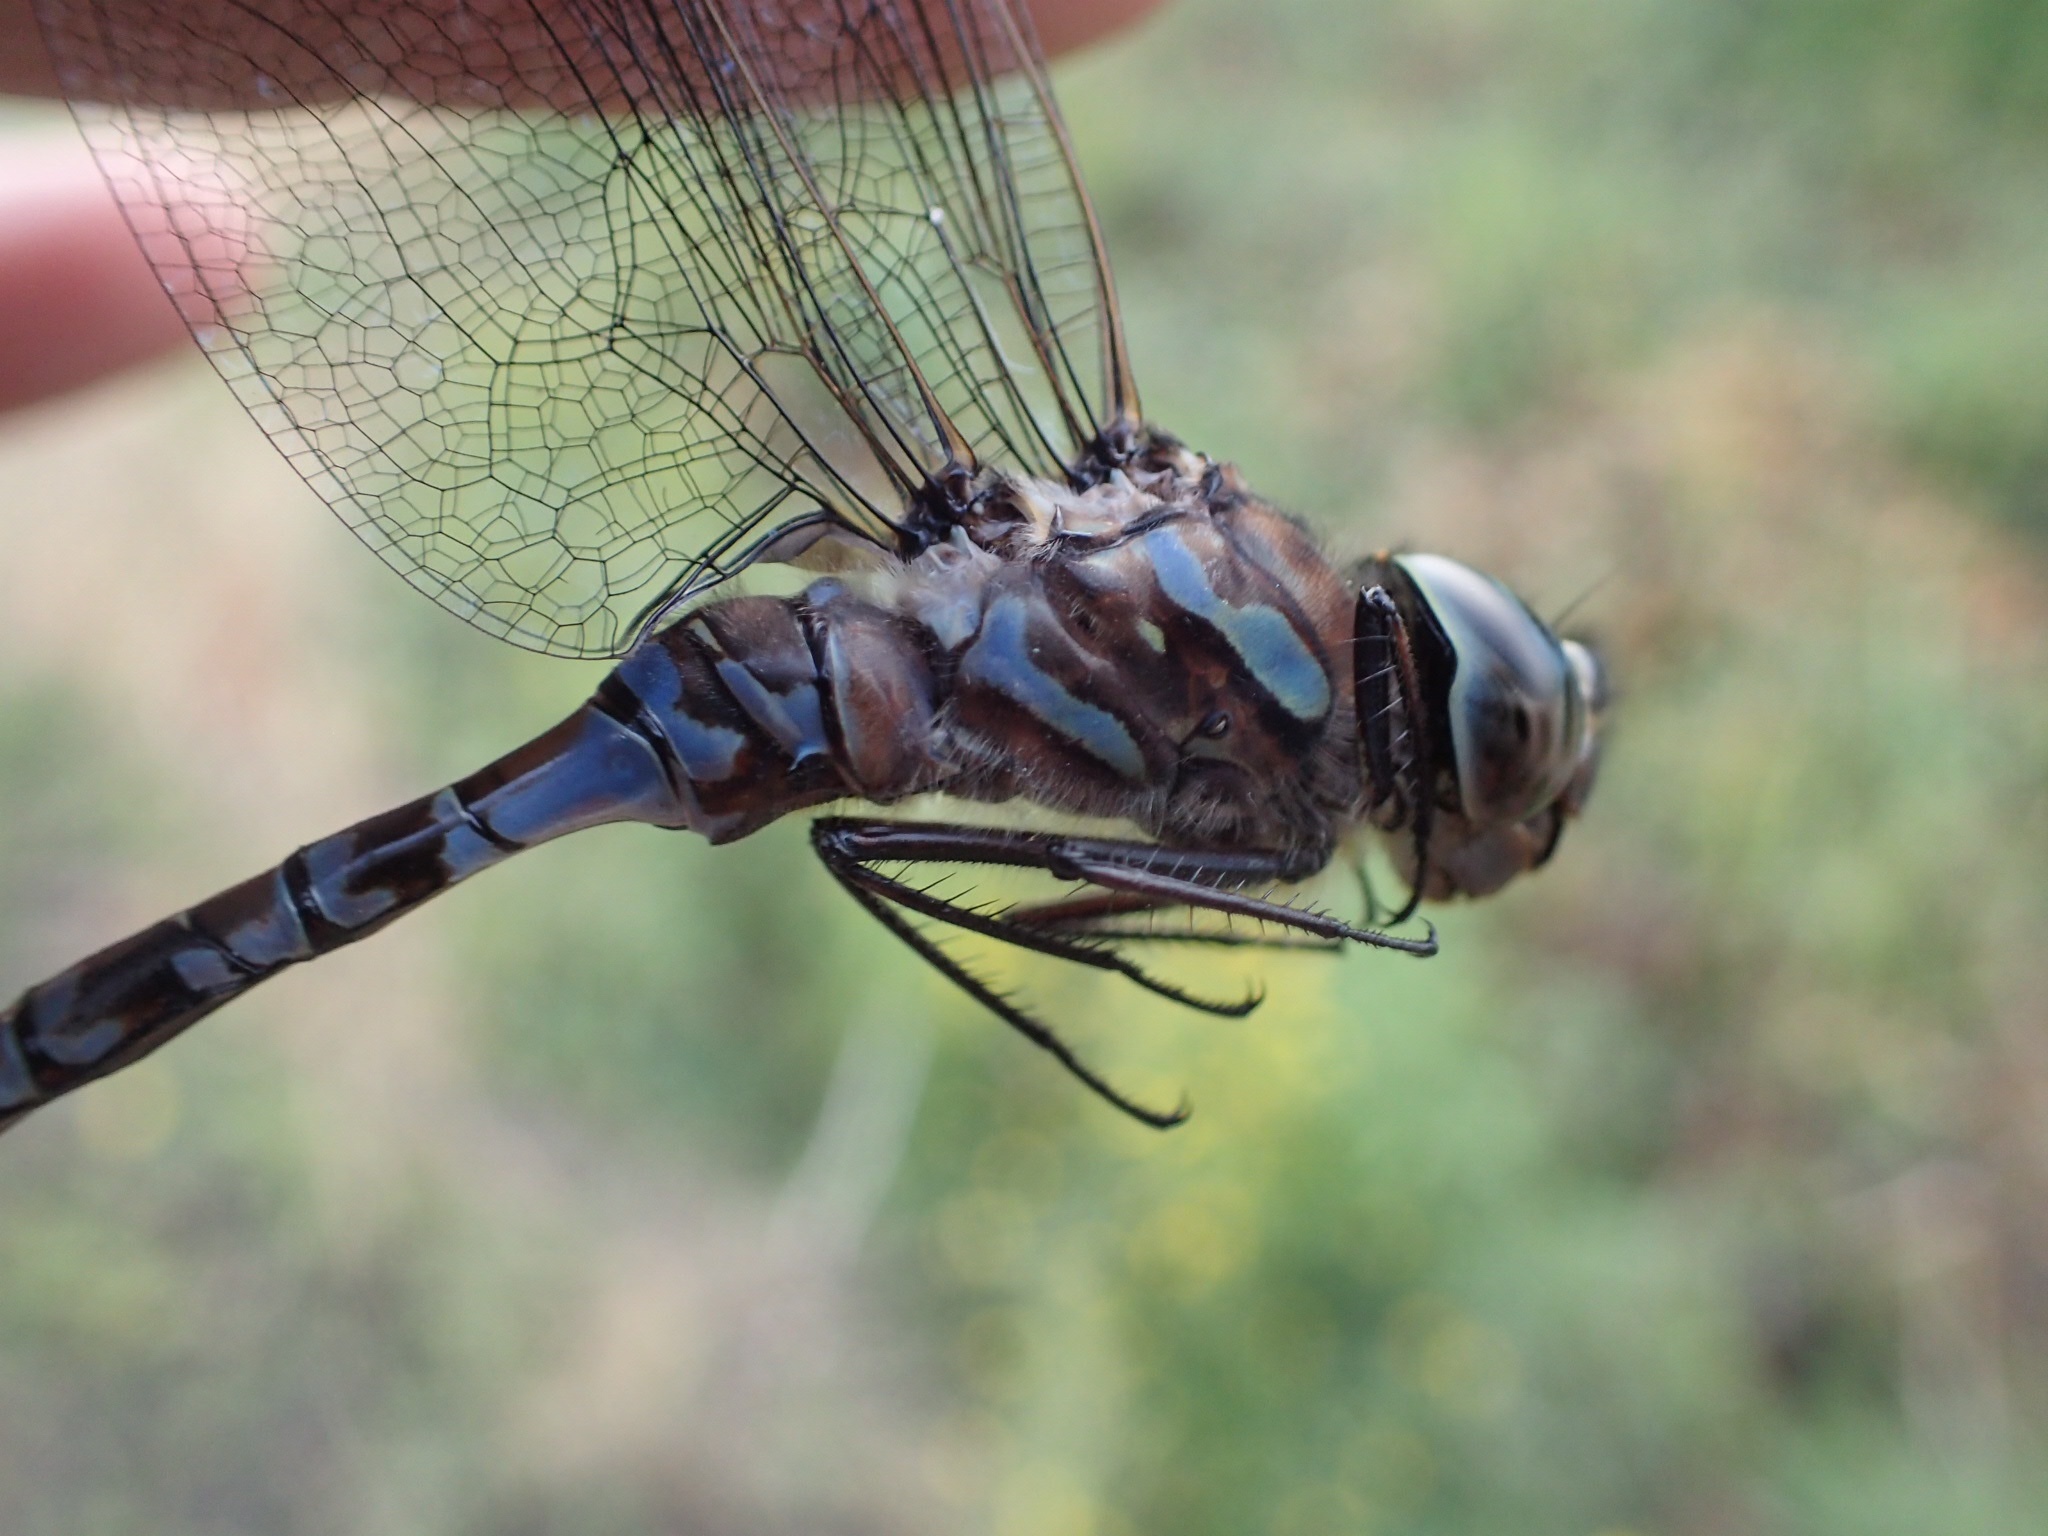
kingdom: Animalia
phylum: Arthropoda
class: Insecta
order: Odonata
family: Aeshnidae
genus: Aeshna
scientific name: Aeshna canadensis
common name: Canada darner
